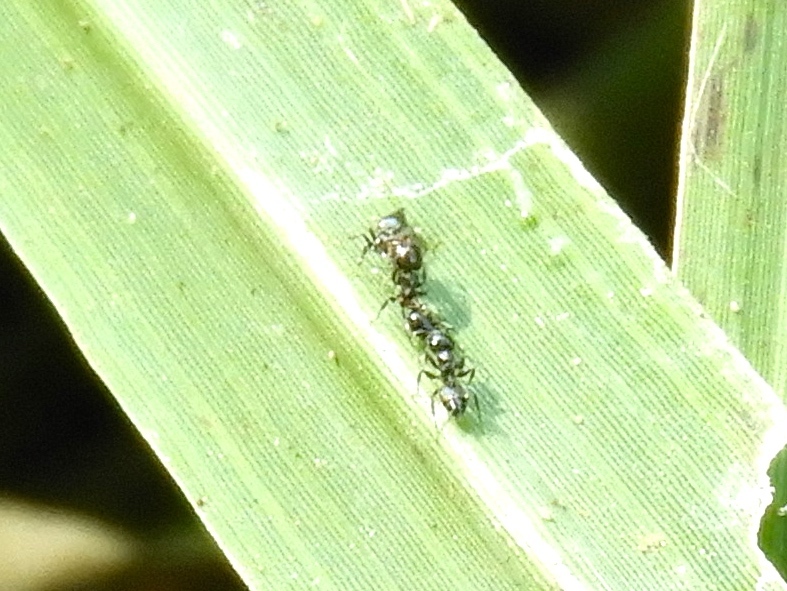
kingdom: Animalia
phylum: Arthropoda
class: Insecta
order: Hymenoptera
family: Formicidae
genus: Crematogaster
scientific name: Crematogaster
